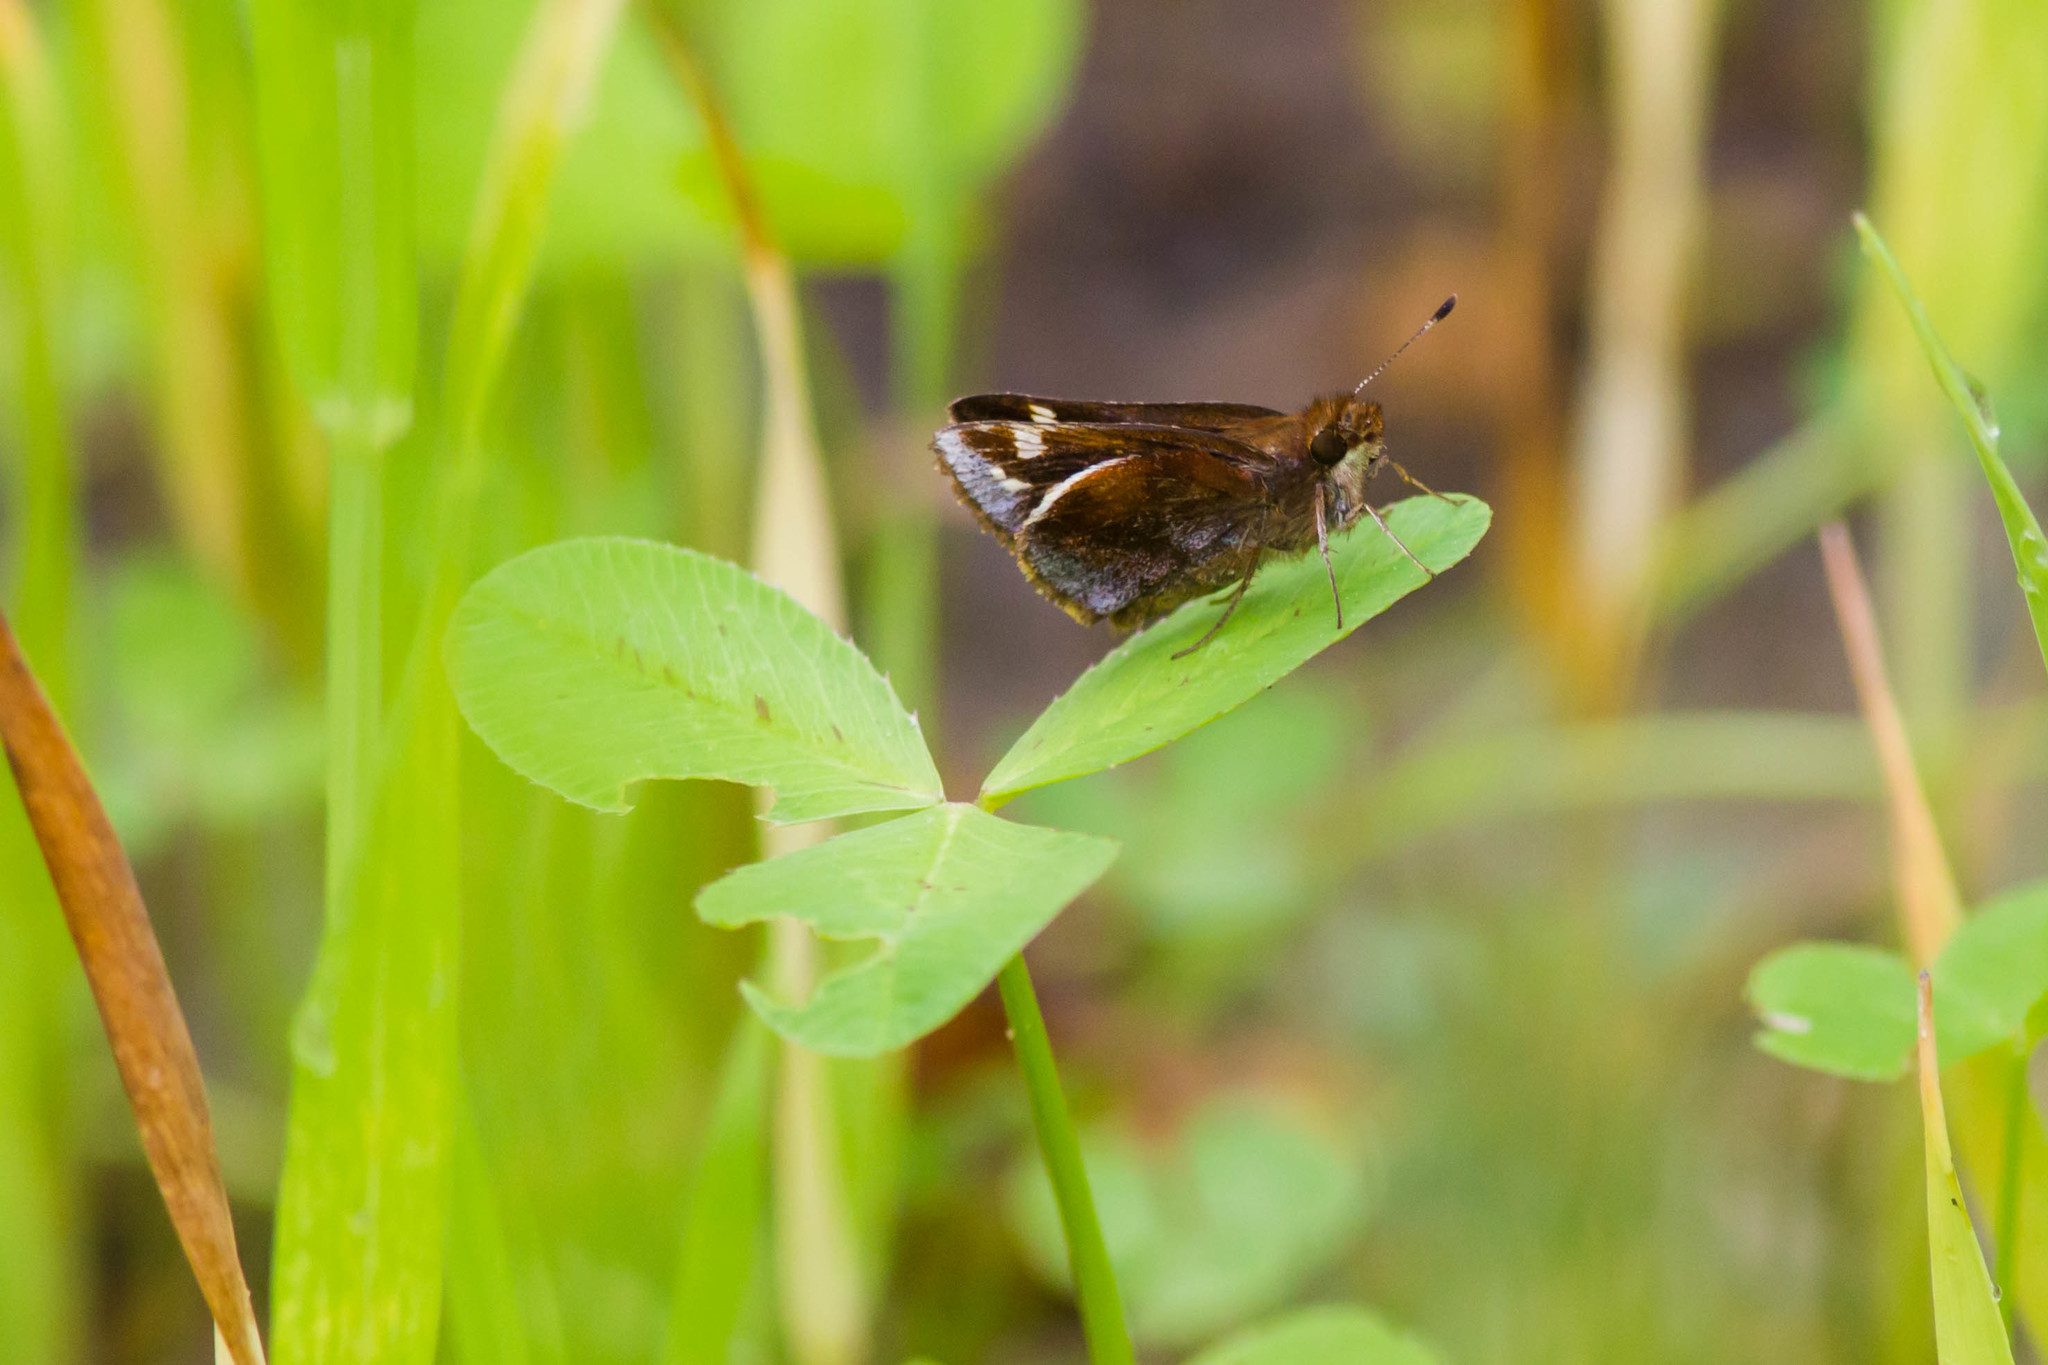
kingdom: Animalia
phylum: Arthropoda
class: Insecta
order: Lepidoptera
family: Hesperiidae
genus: Lon
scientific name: Lon zabulon
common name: Zabulon skipper
